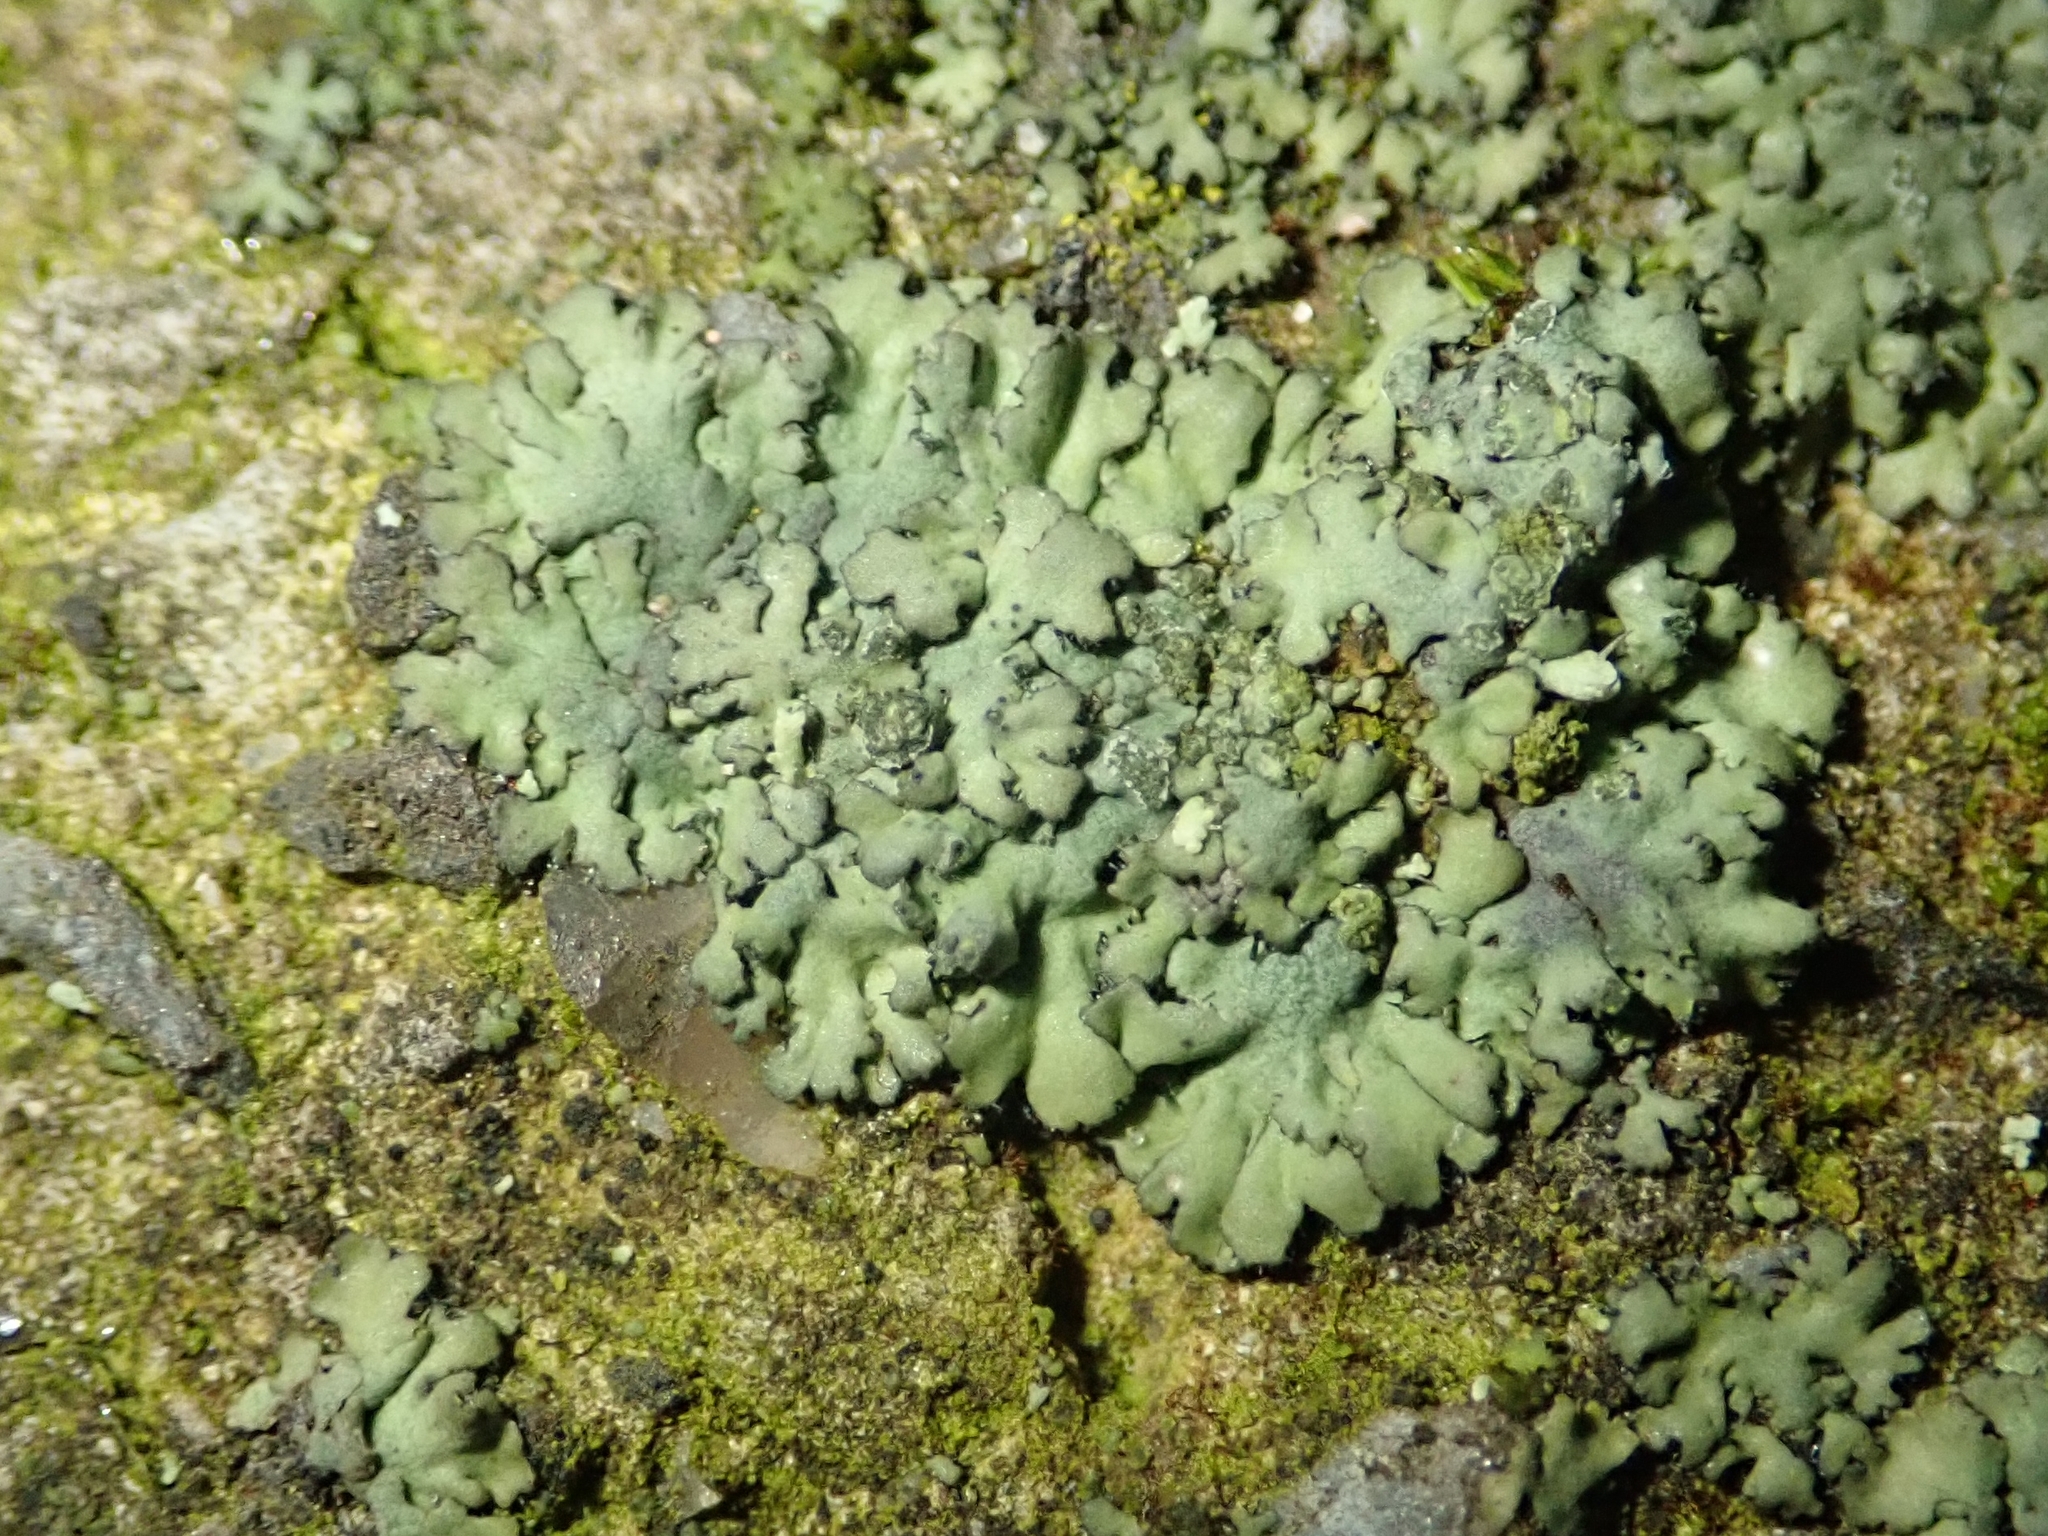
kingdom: Fungi
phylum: Ascomycota
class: Lecanoromycetes
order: Caliciales
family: Physciaceae
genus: Phaeophyscia
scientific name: Phaeophyscia orbicularis
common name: Mealy shadow lichen
